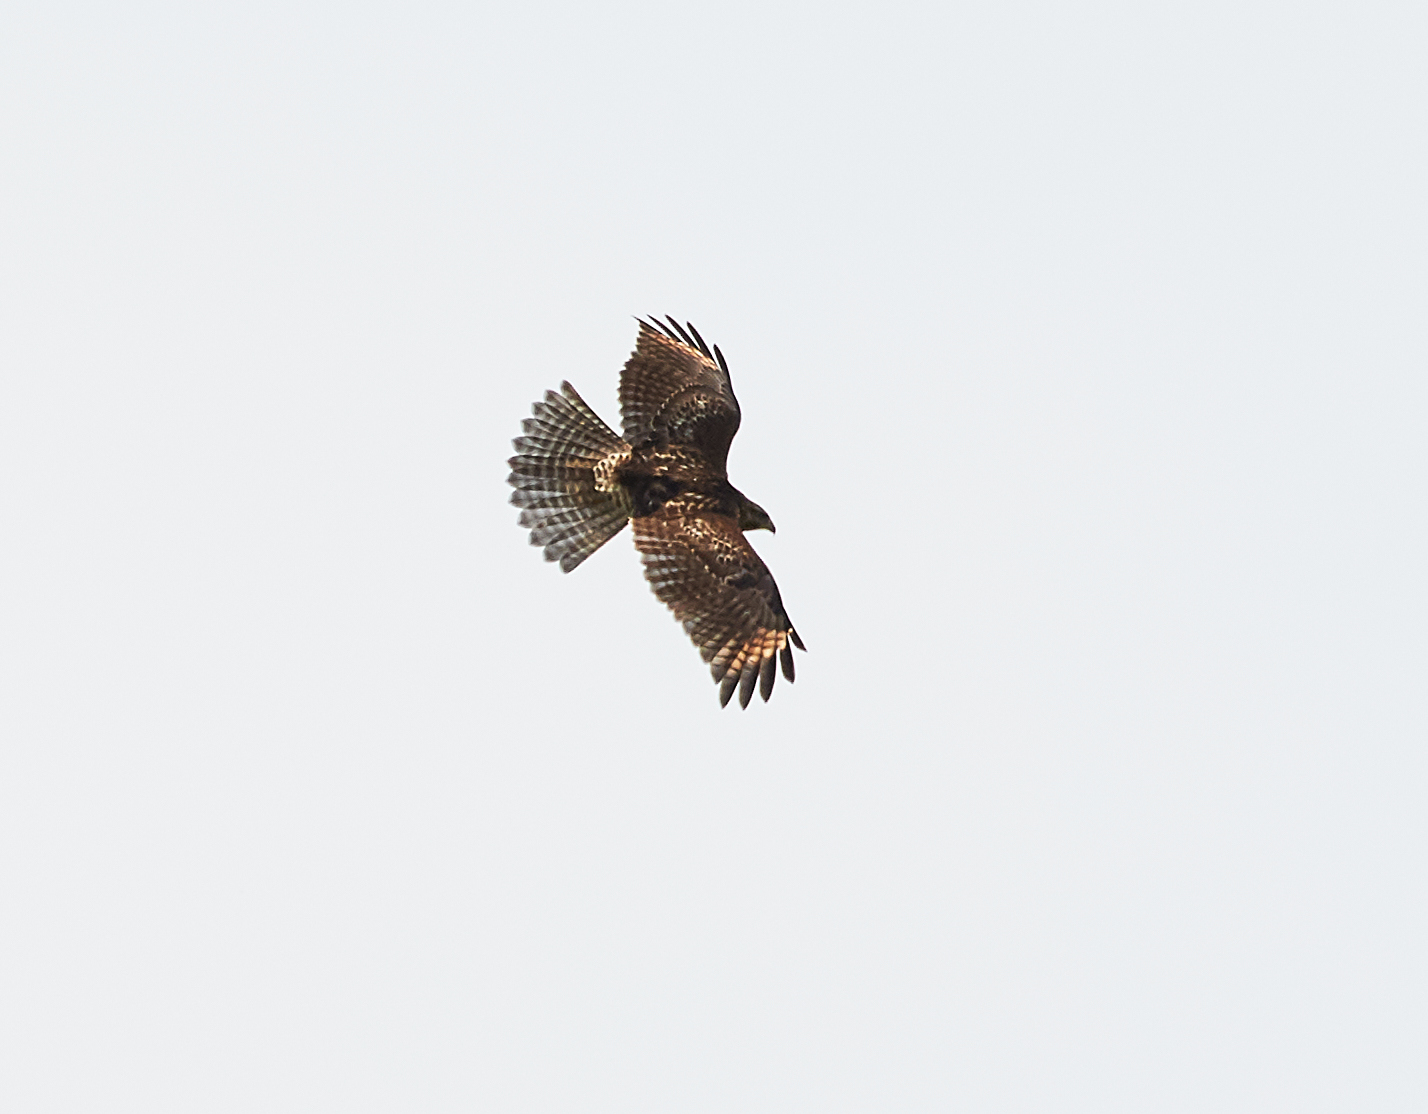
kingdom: Animalia
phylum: Chordata
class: Aves
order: Accipitriformes
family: Accipitridae
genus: Buteo
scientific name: Buteo lineatus
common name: Red-shouldered hawk
